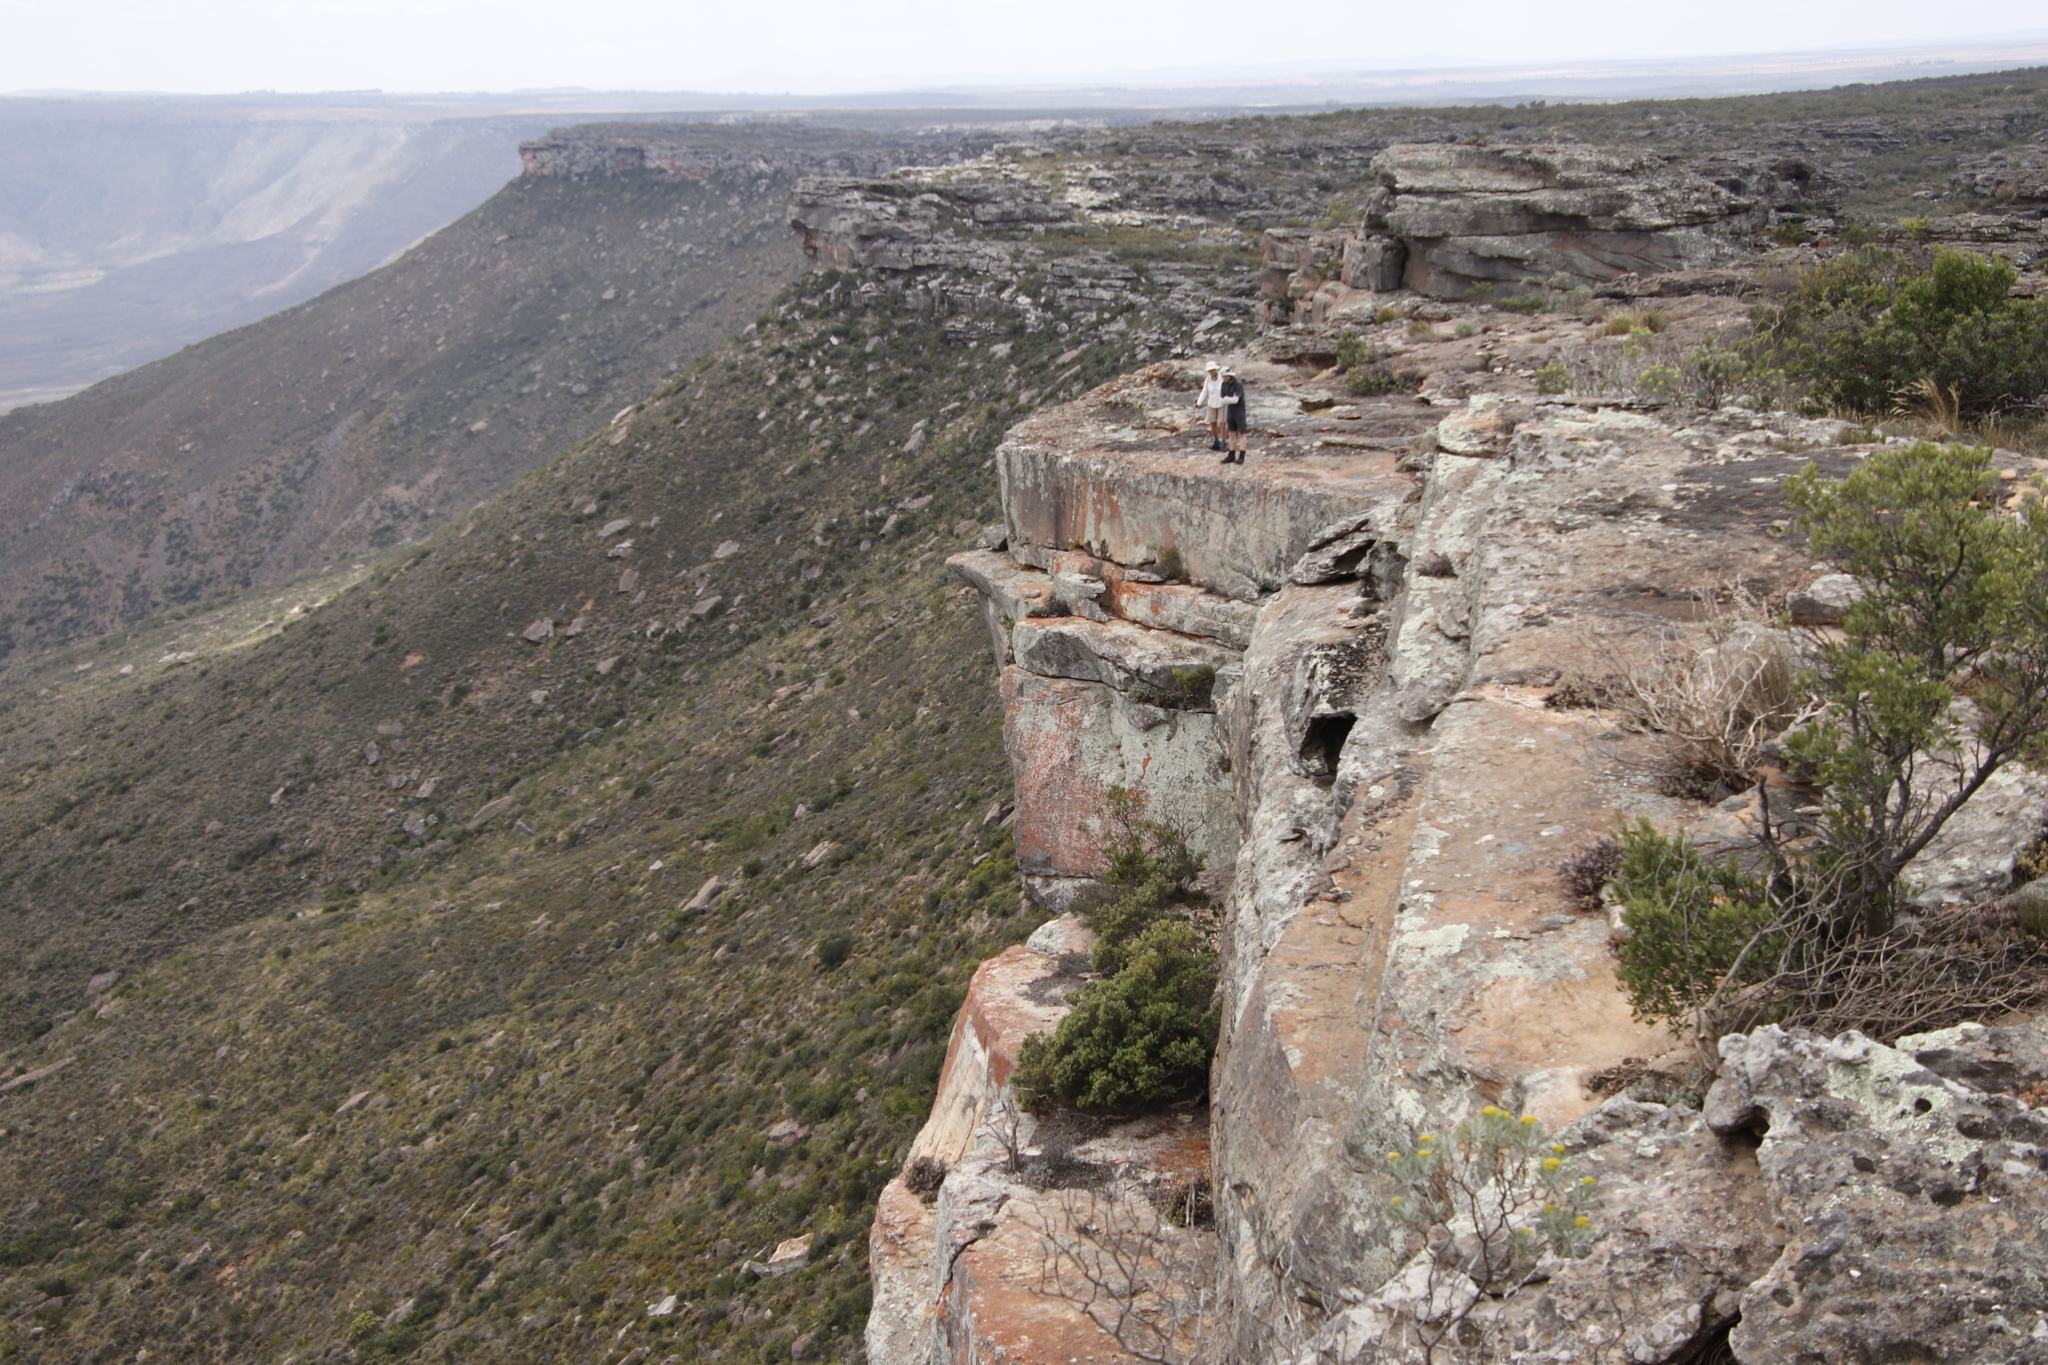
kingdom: Plantae
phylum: Tracheophyta
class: Magnoliopsida
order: Celastrales
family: Celastraceae
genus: Gymnosporia
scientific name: Gymnosporia laurina
